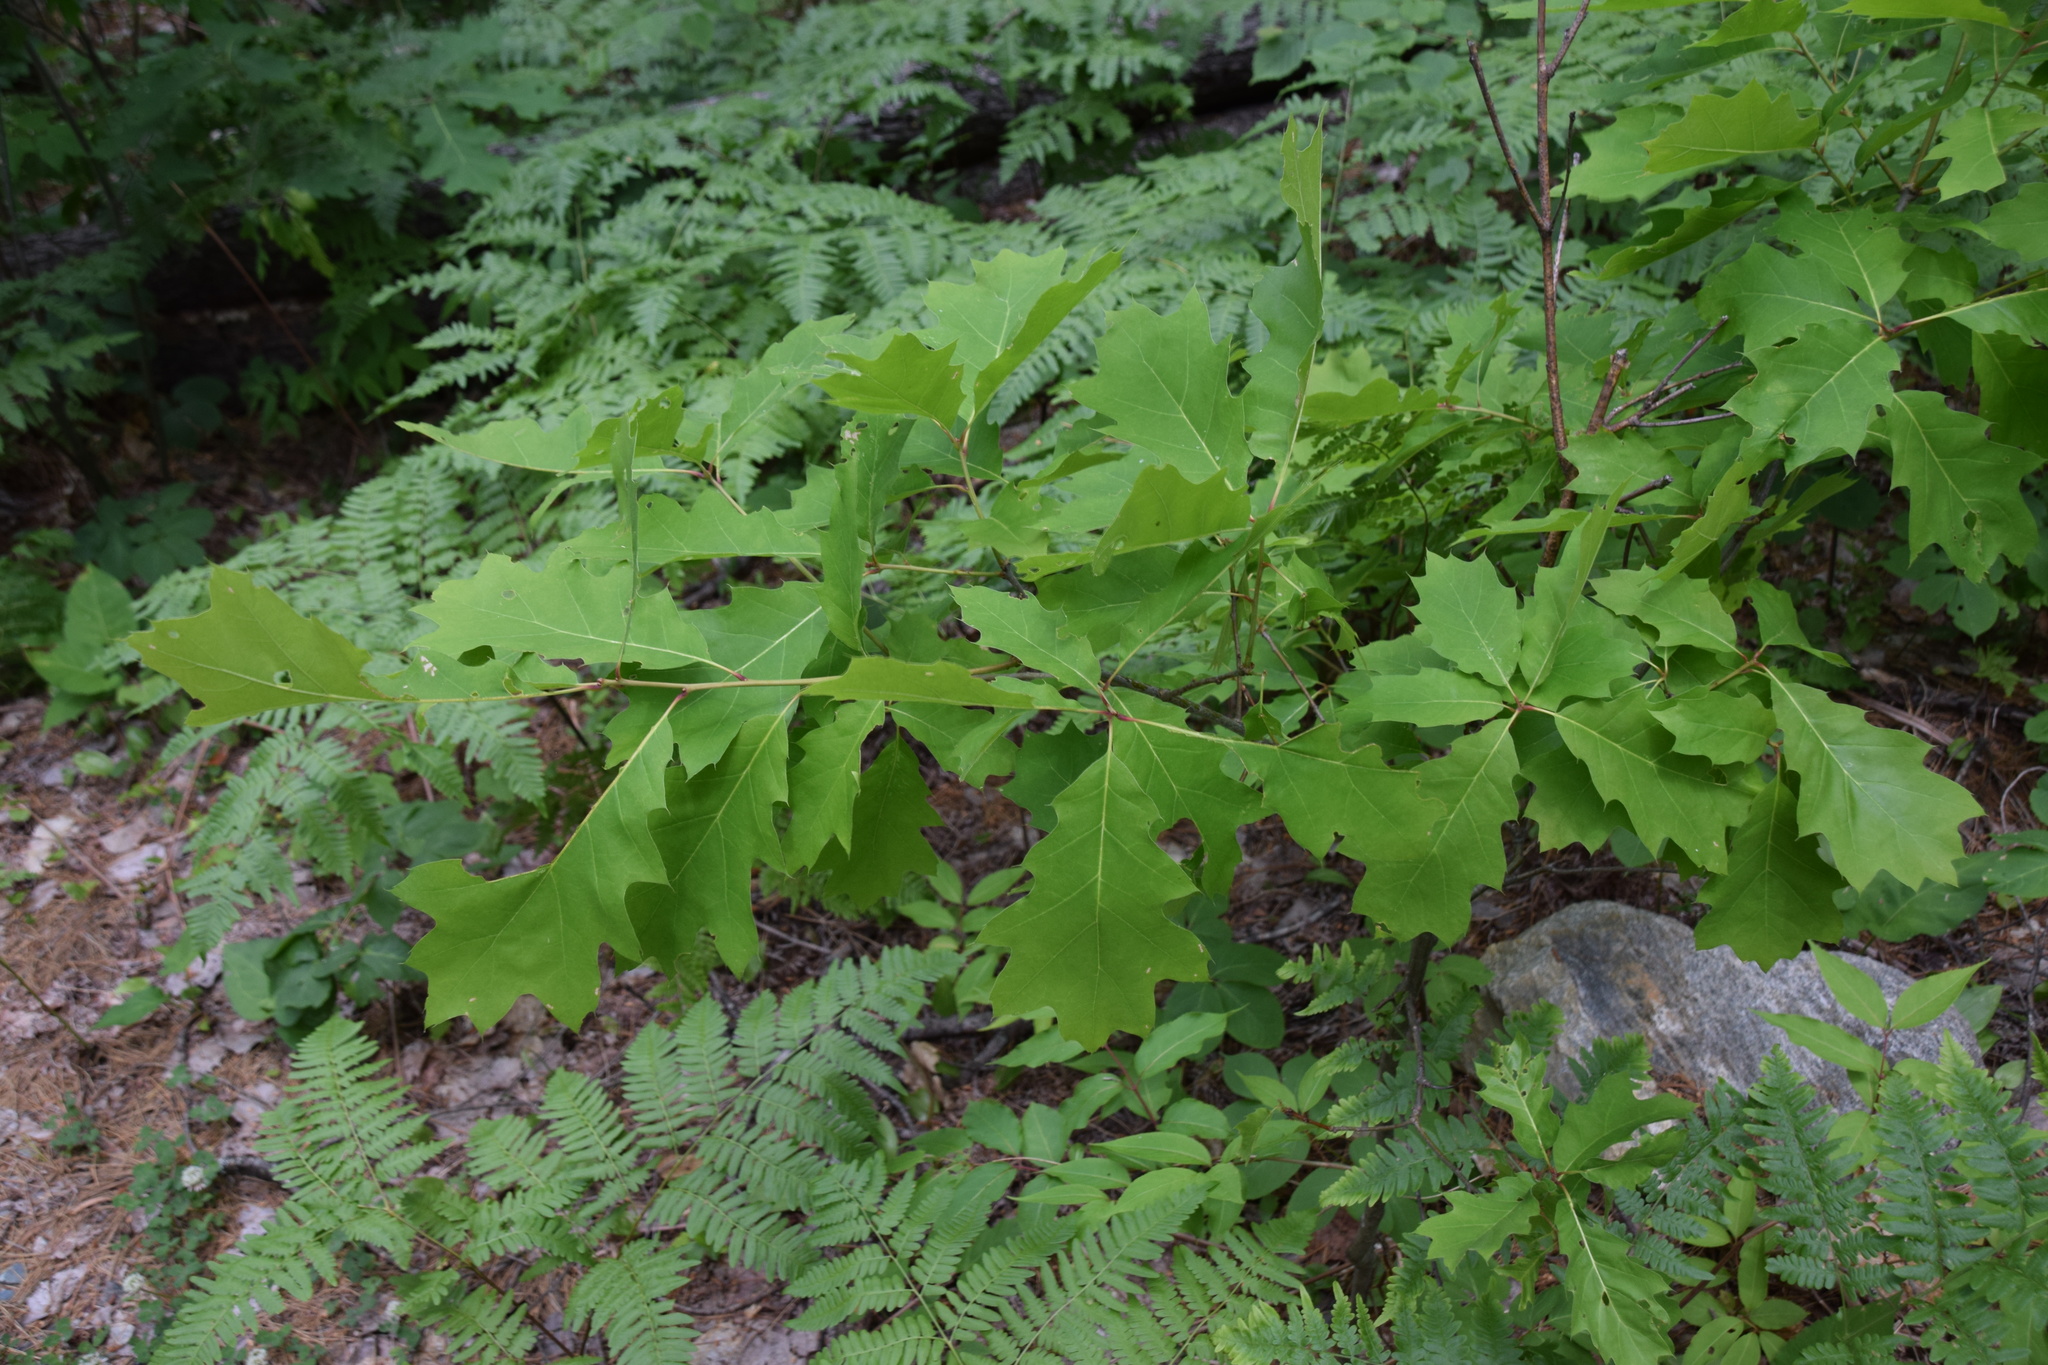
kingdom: Plantae
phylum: Tracheophyta
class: Magnoliopsida
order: Fagales
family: Fagaceae
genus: Quercus
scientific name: Quercus rubra
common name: Red oak
